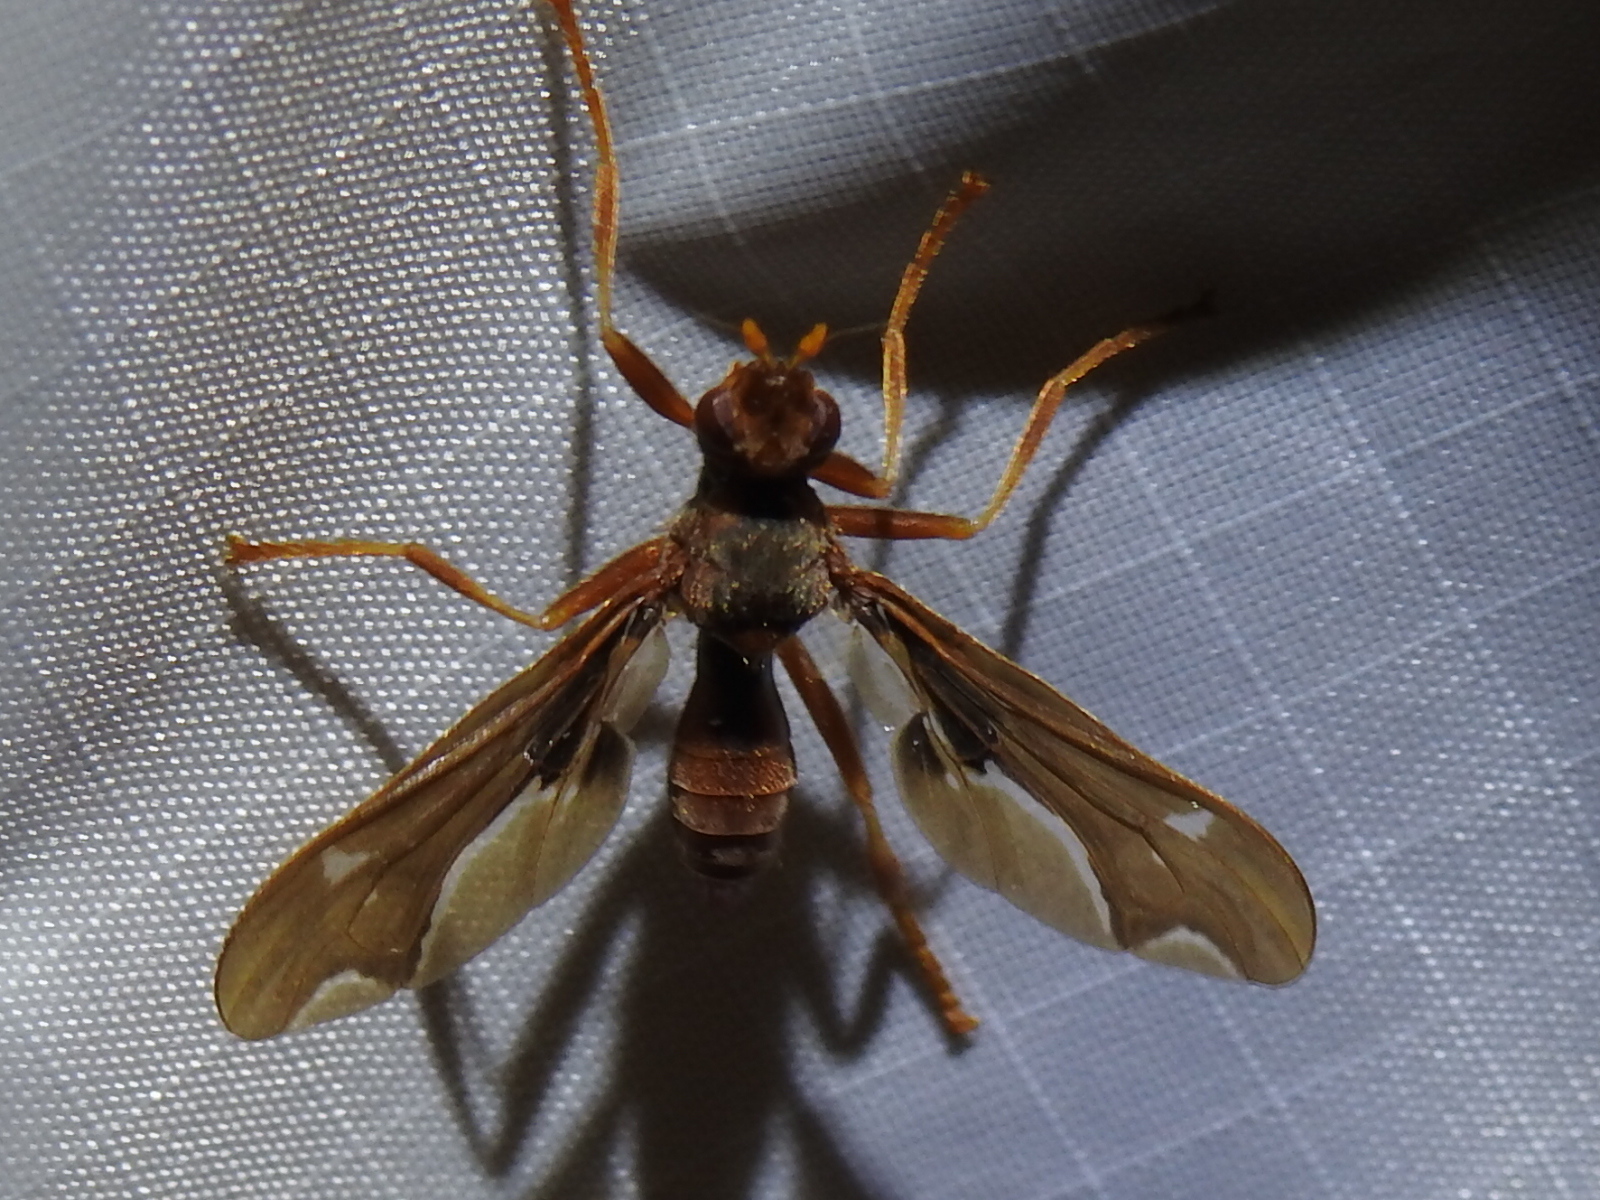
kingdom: Animalia
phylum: Arthropoda
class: Insecta
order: Diptera
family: Pyrgotidae
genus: Pyrgota
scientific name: Pyrgota undata
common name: Waved light fly
